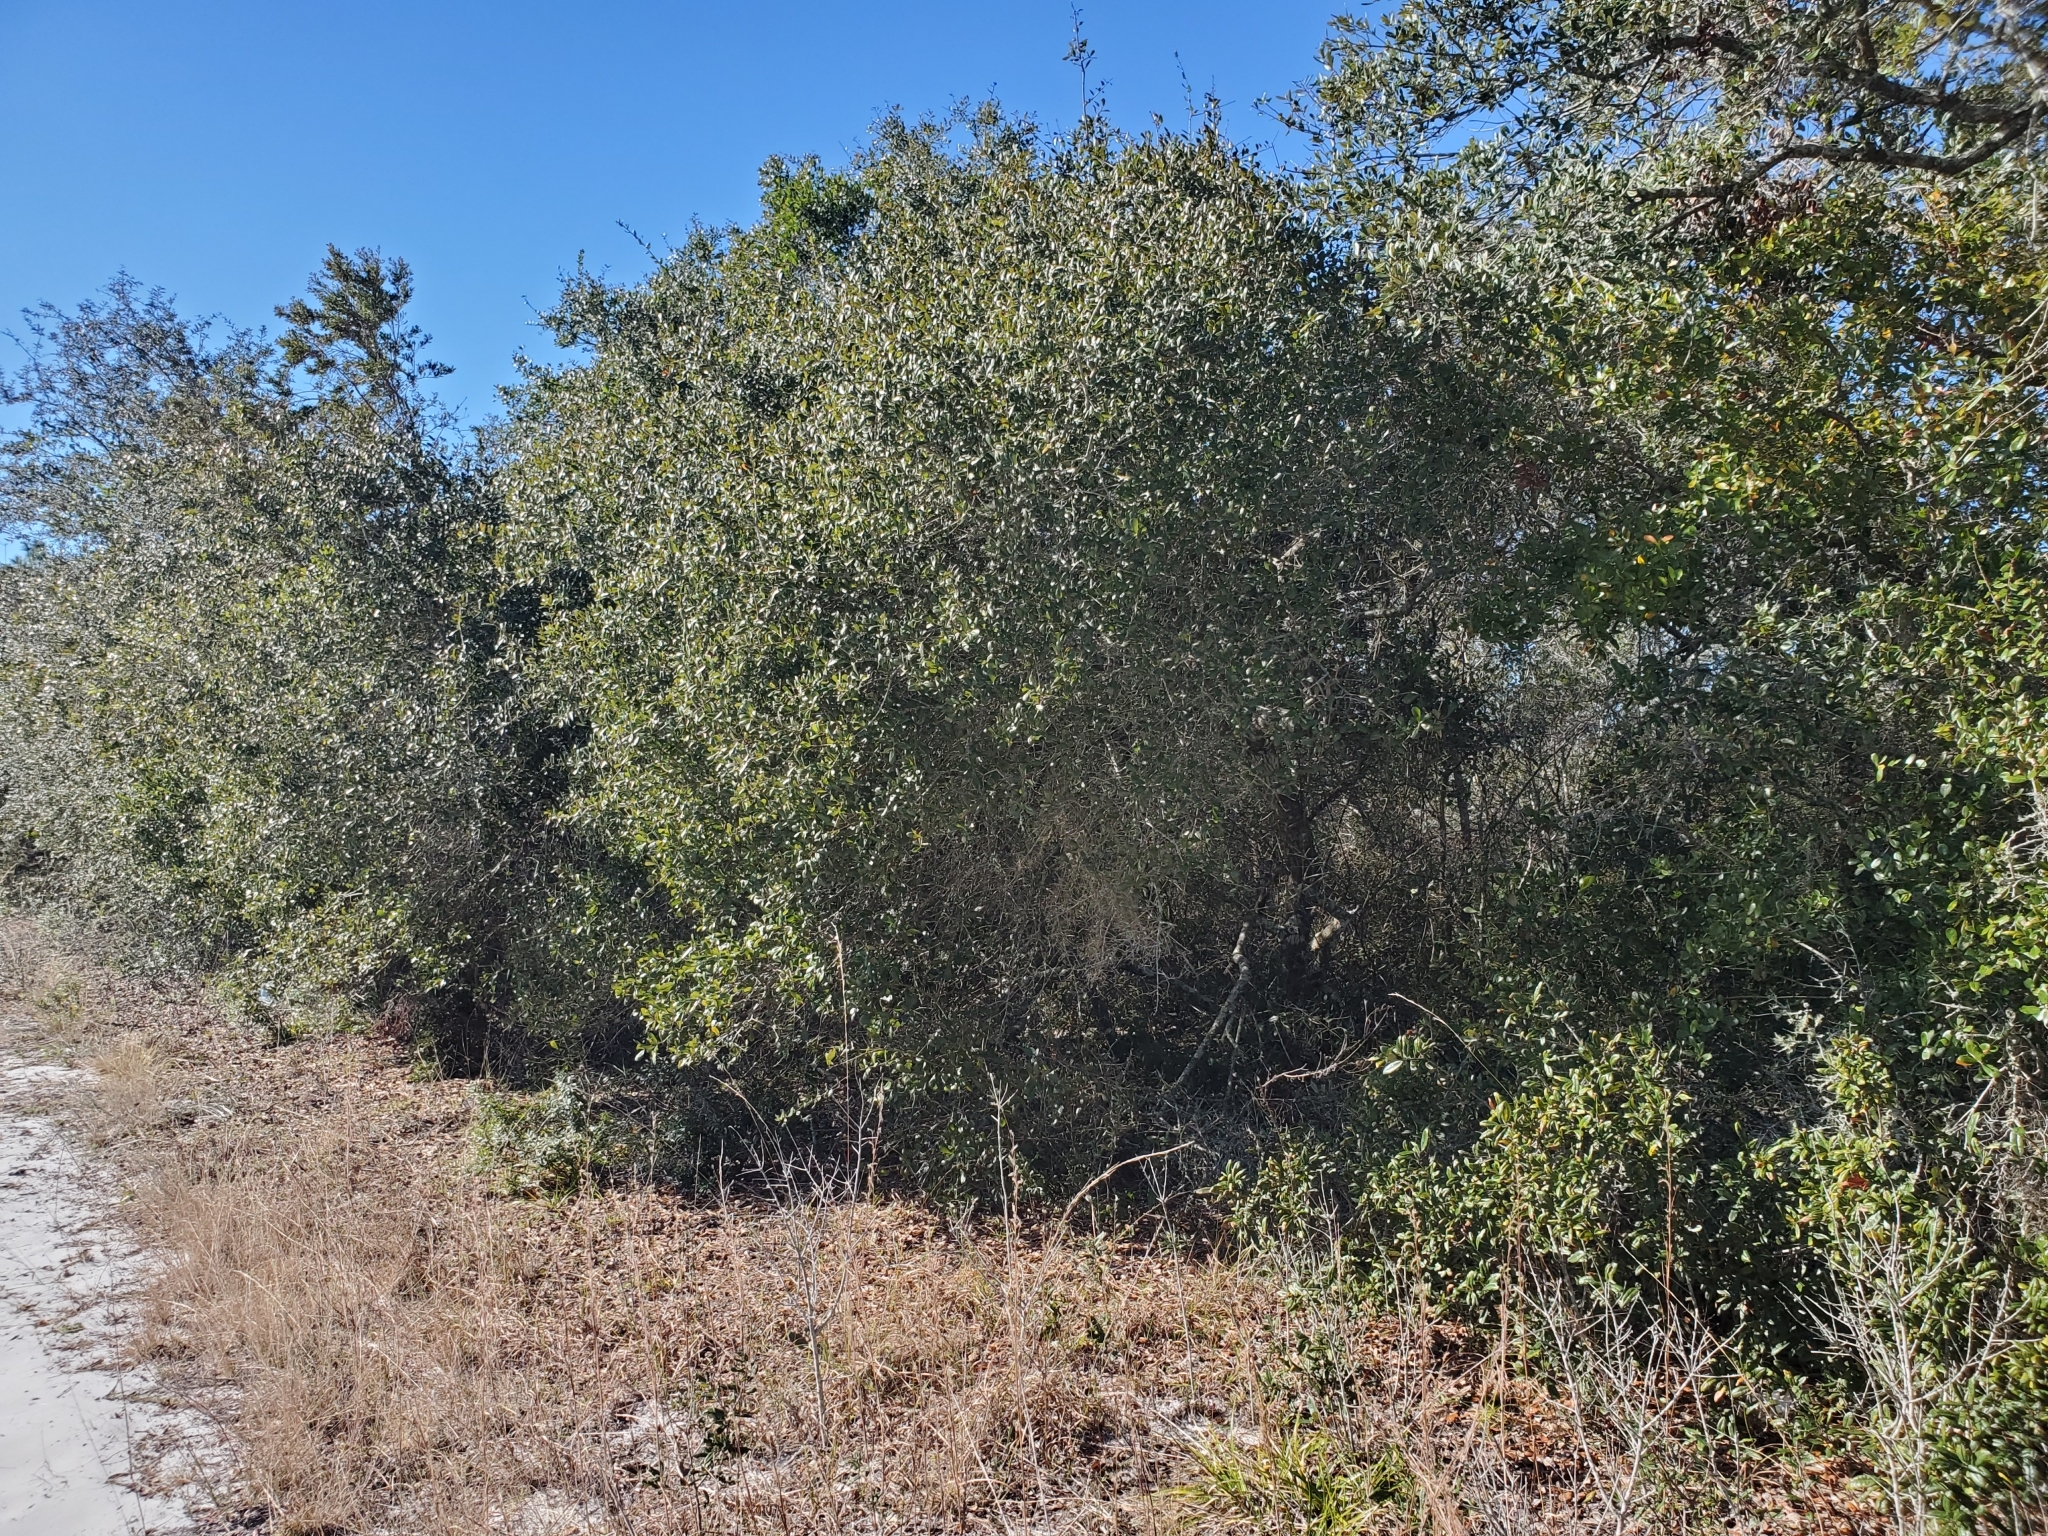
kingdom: Plantae
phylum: Tracheophyta
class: Magnoliopsida
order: Fagales
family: Fagaceae
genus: Quercus
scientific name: Quercus myrtifolia
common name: Myrtle oak
